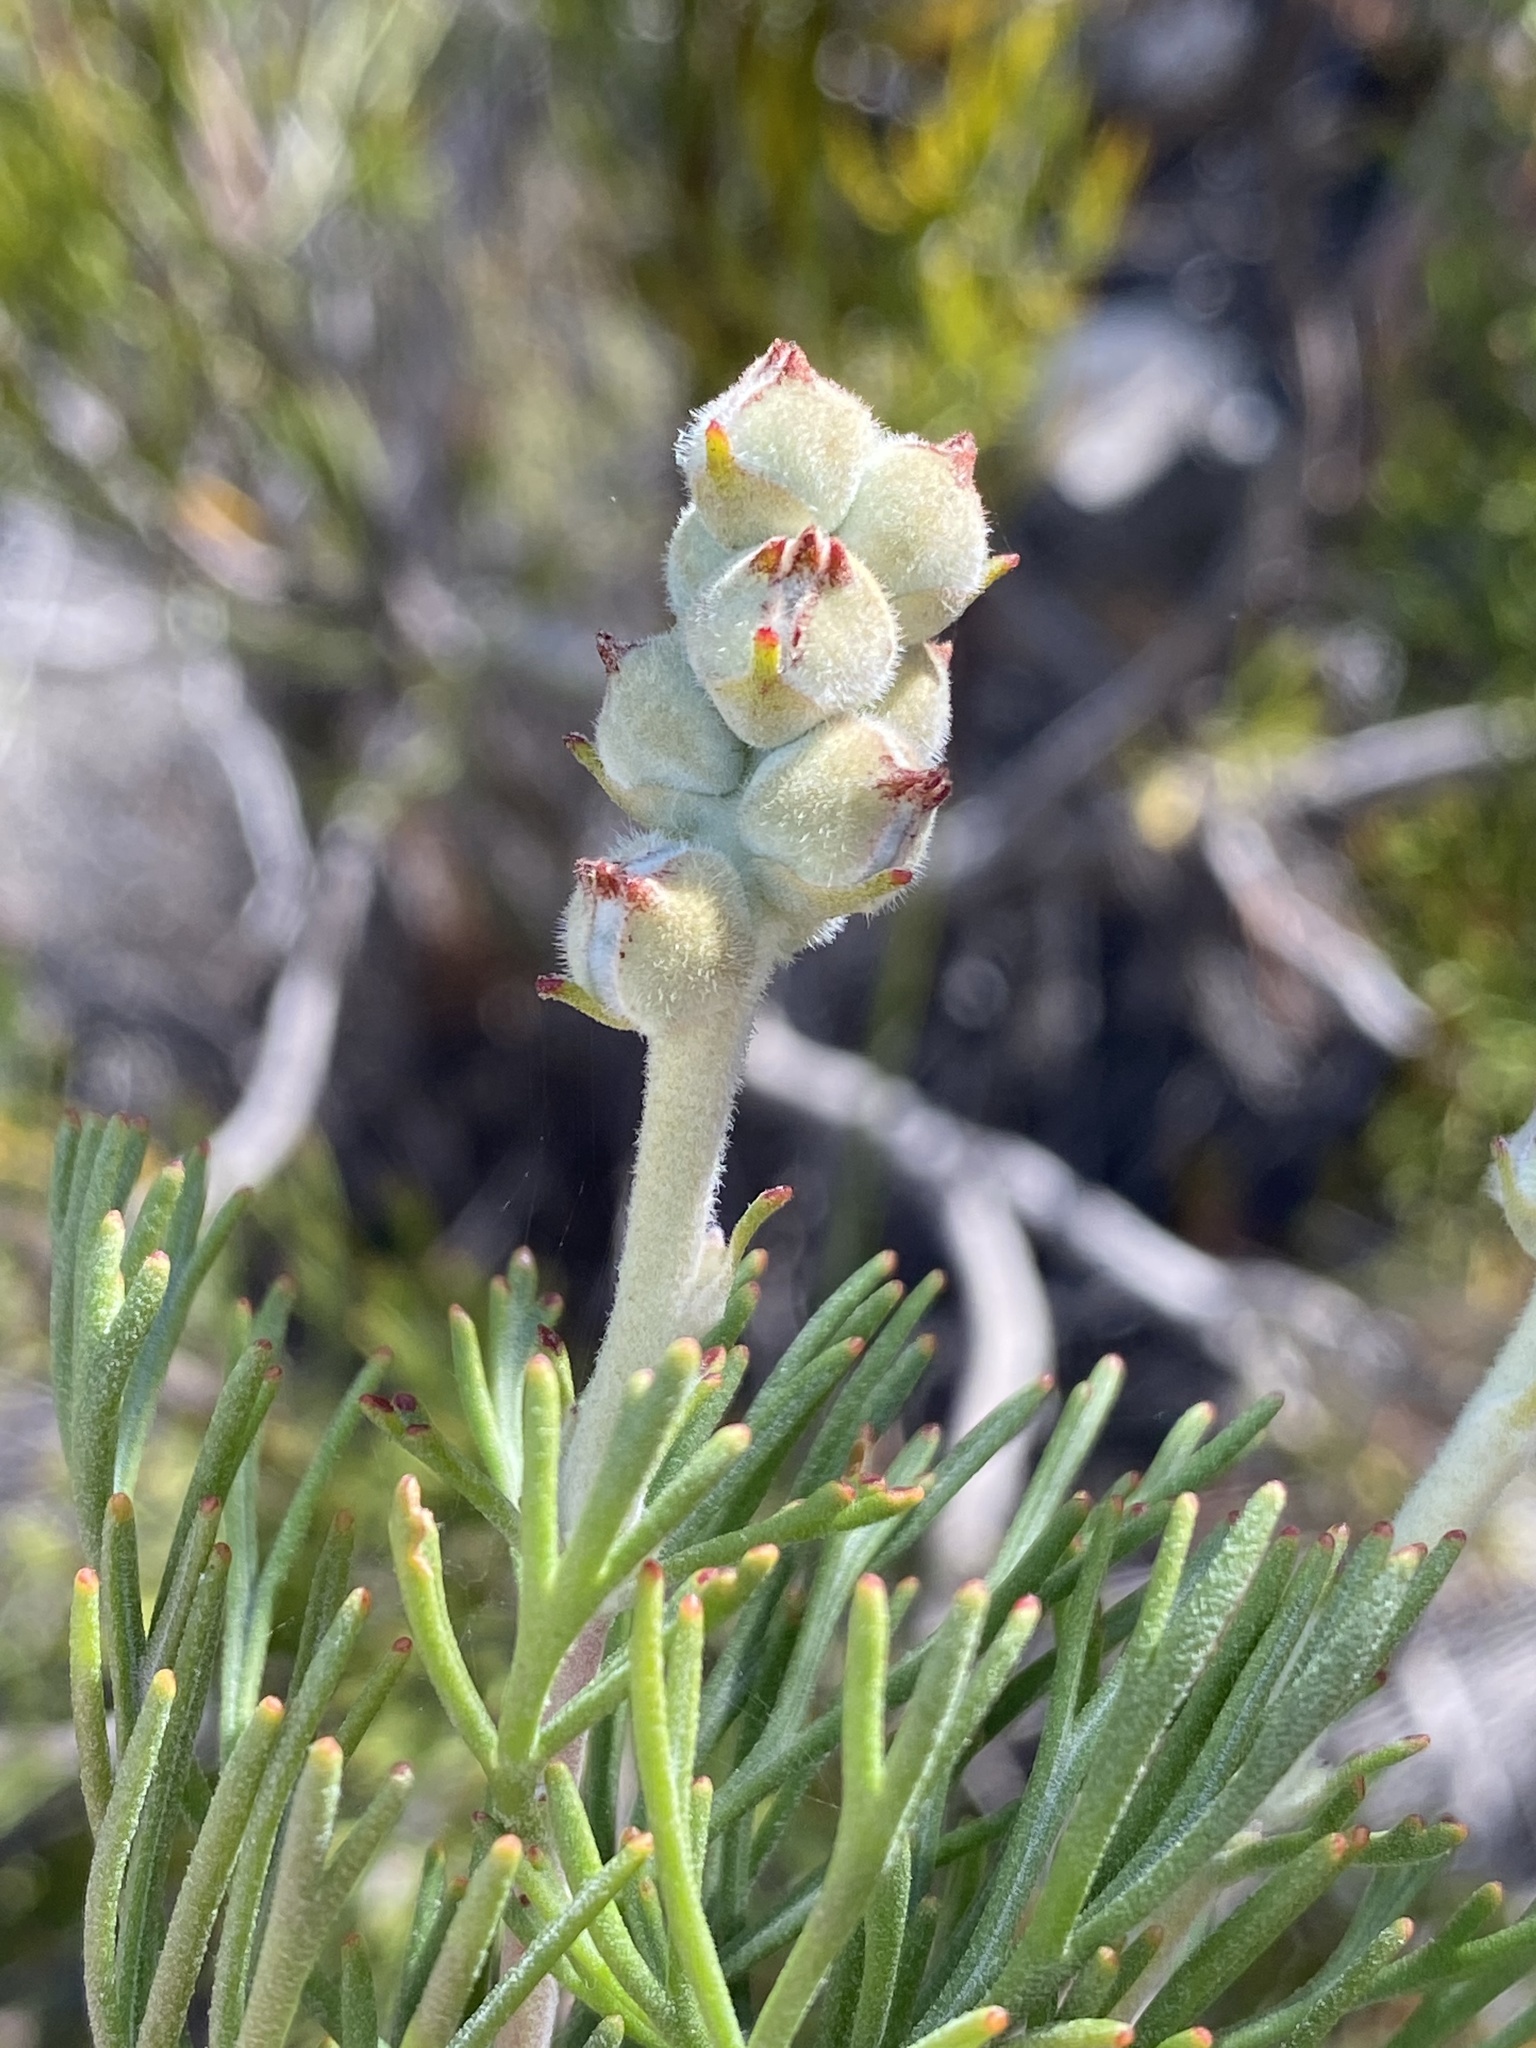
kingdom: Plantae
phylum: Tracheophyta
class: Magnoliopsida
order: Proteales
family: Proteaceae
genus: Paranomus
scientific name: Paranomus dregei
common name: Scented sceptre
